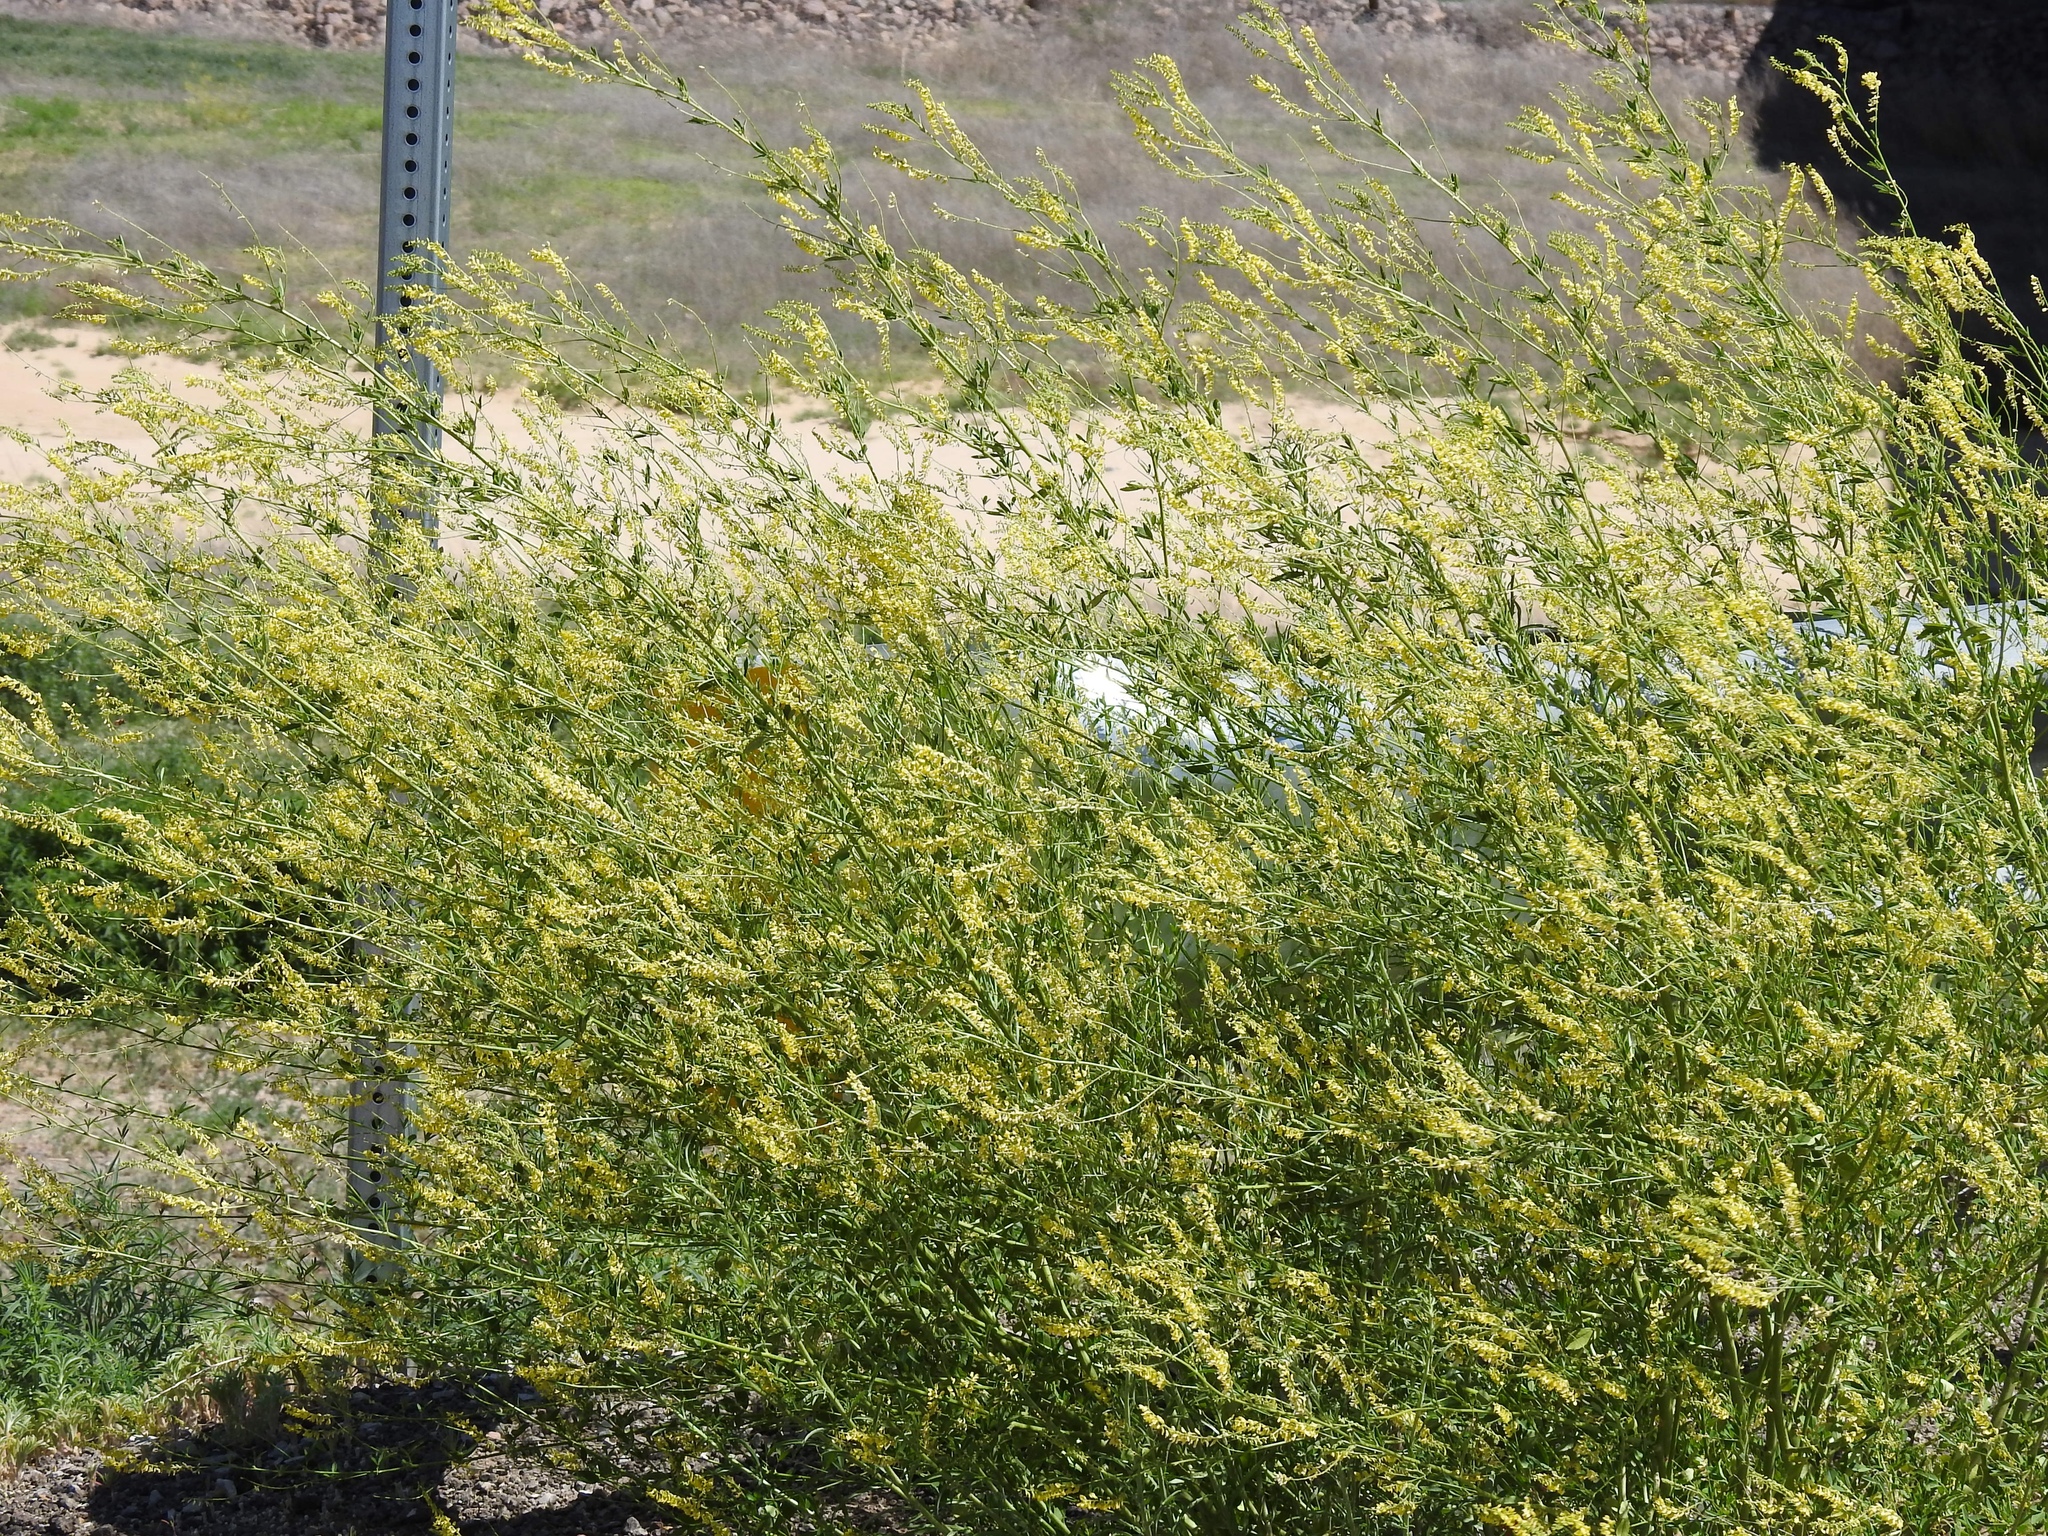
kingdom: Plantae
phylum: Tracheophyta
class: Magnoliopsida
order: Fabales
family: Fabaceae
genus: Melilotus
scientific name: Melilotus officinalis
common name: Sweetclover
